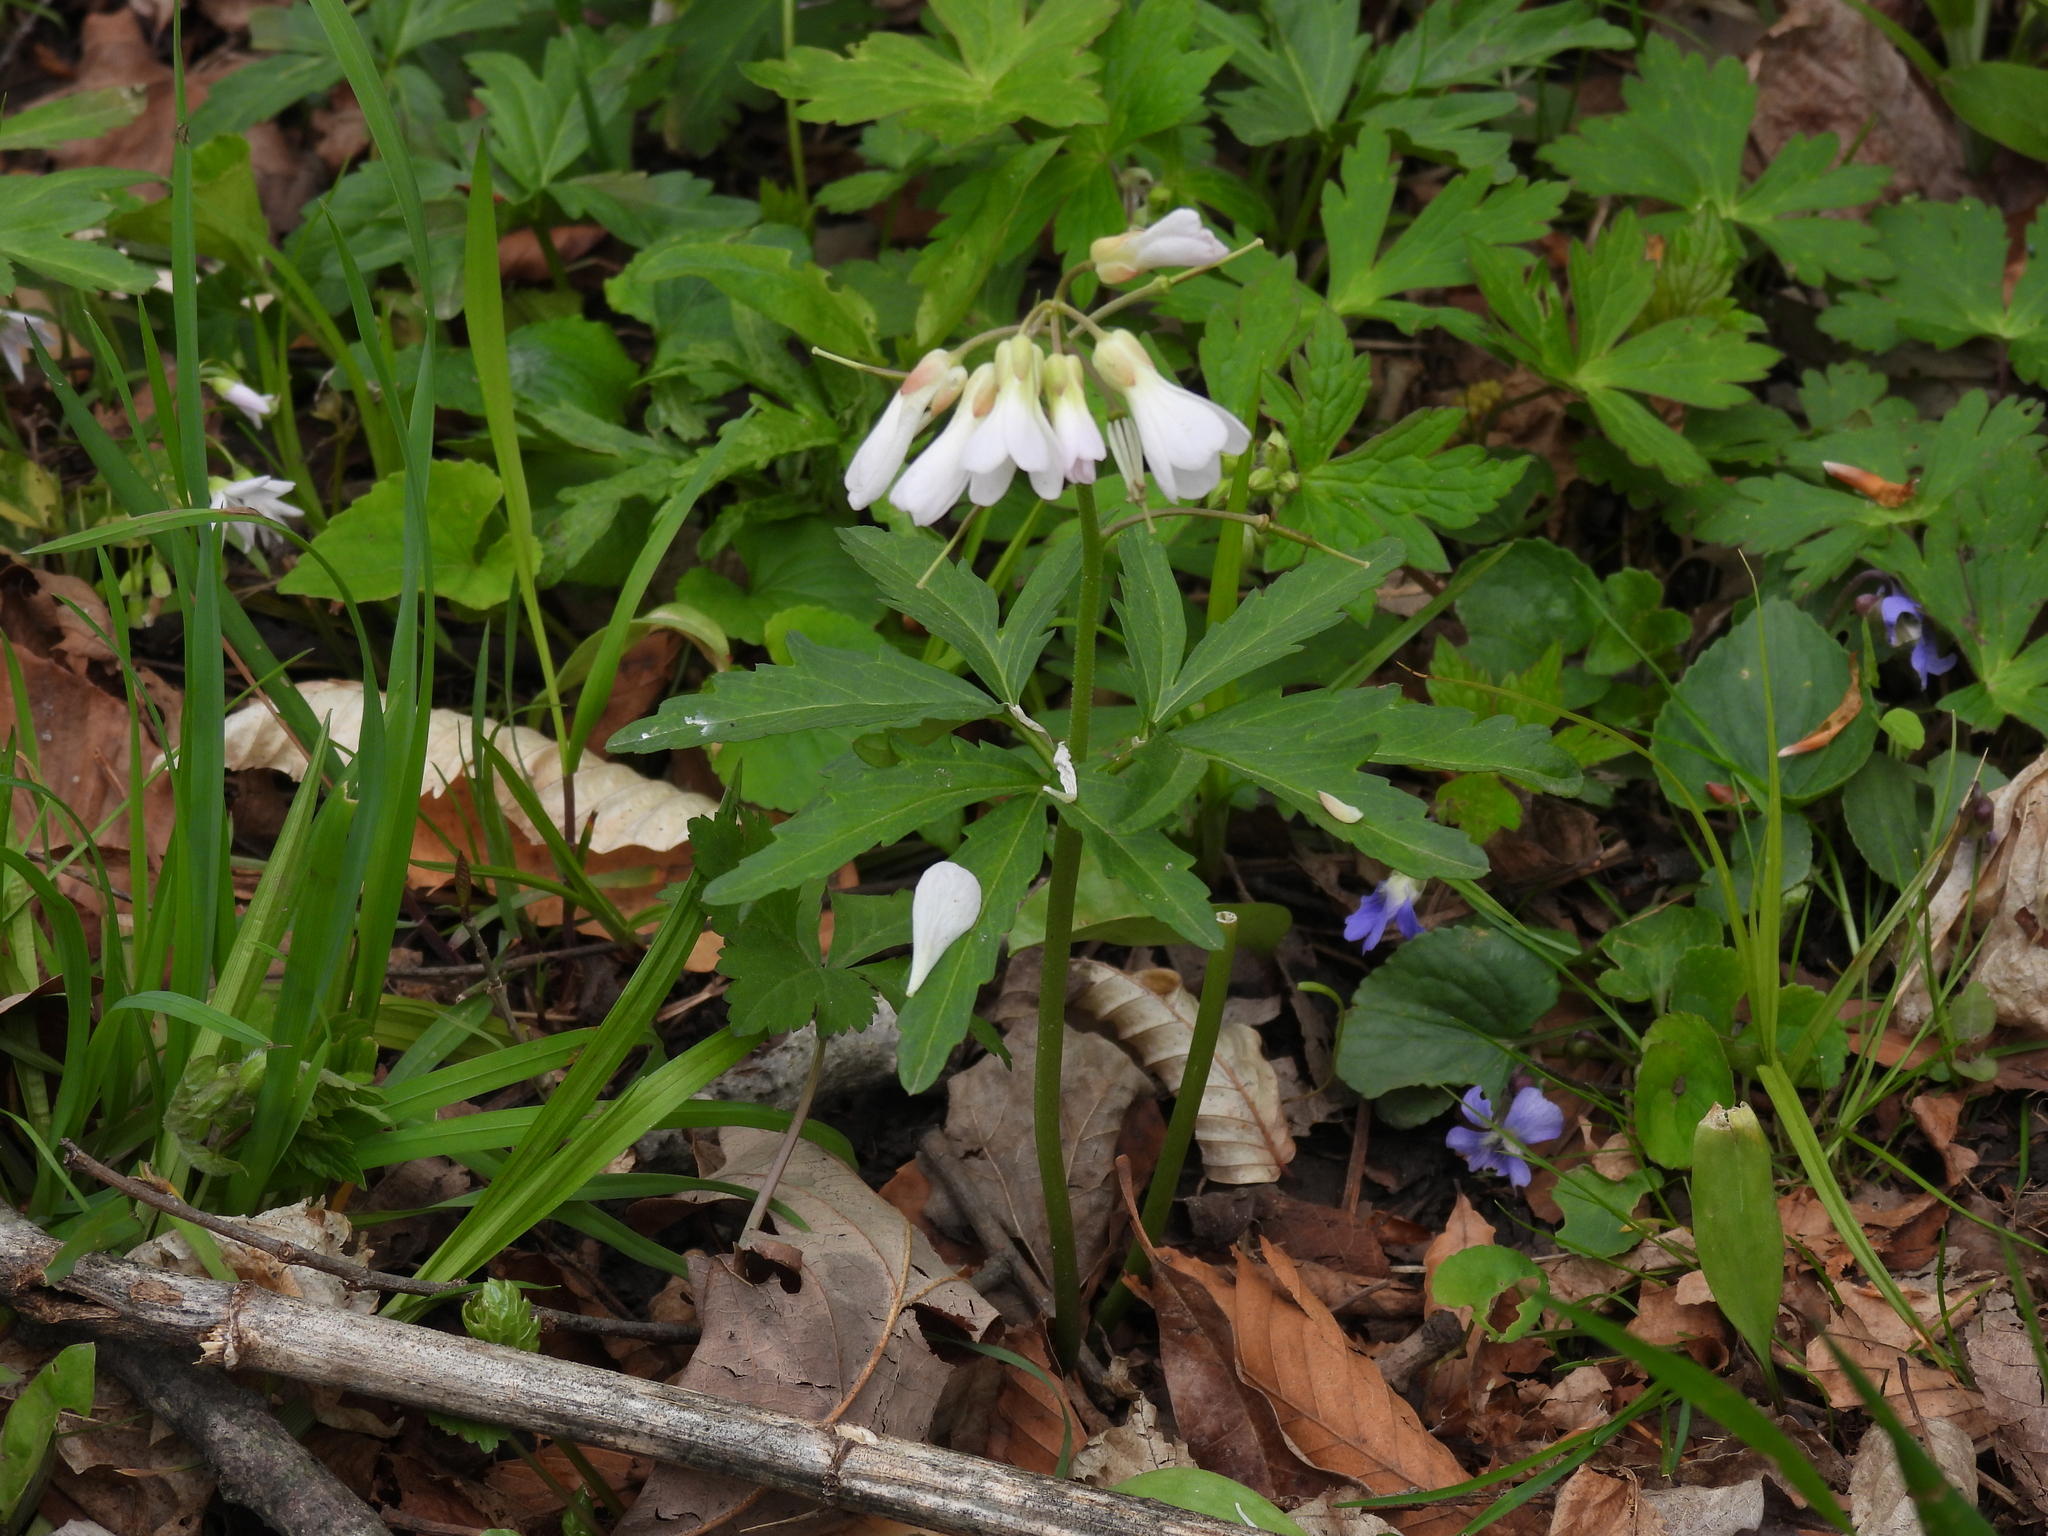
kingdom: Plantae
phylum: Tracheophyta
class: Magnoliopsida
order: Brassicales
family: Brassicaceae
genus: Cardamine
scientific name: Cardamine concatenata
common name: Cut-leaf toothcup
